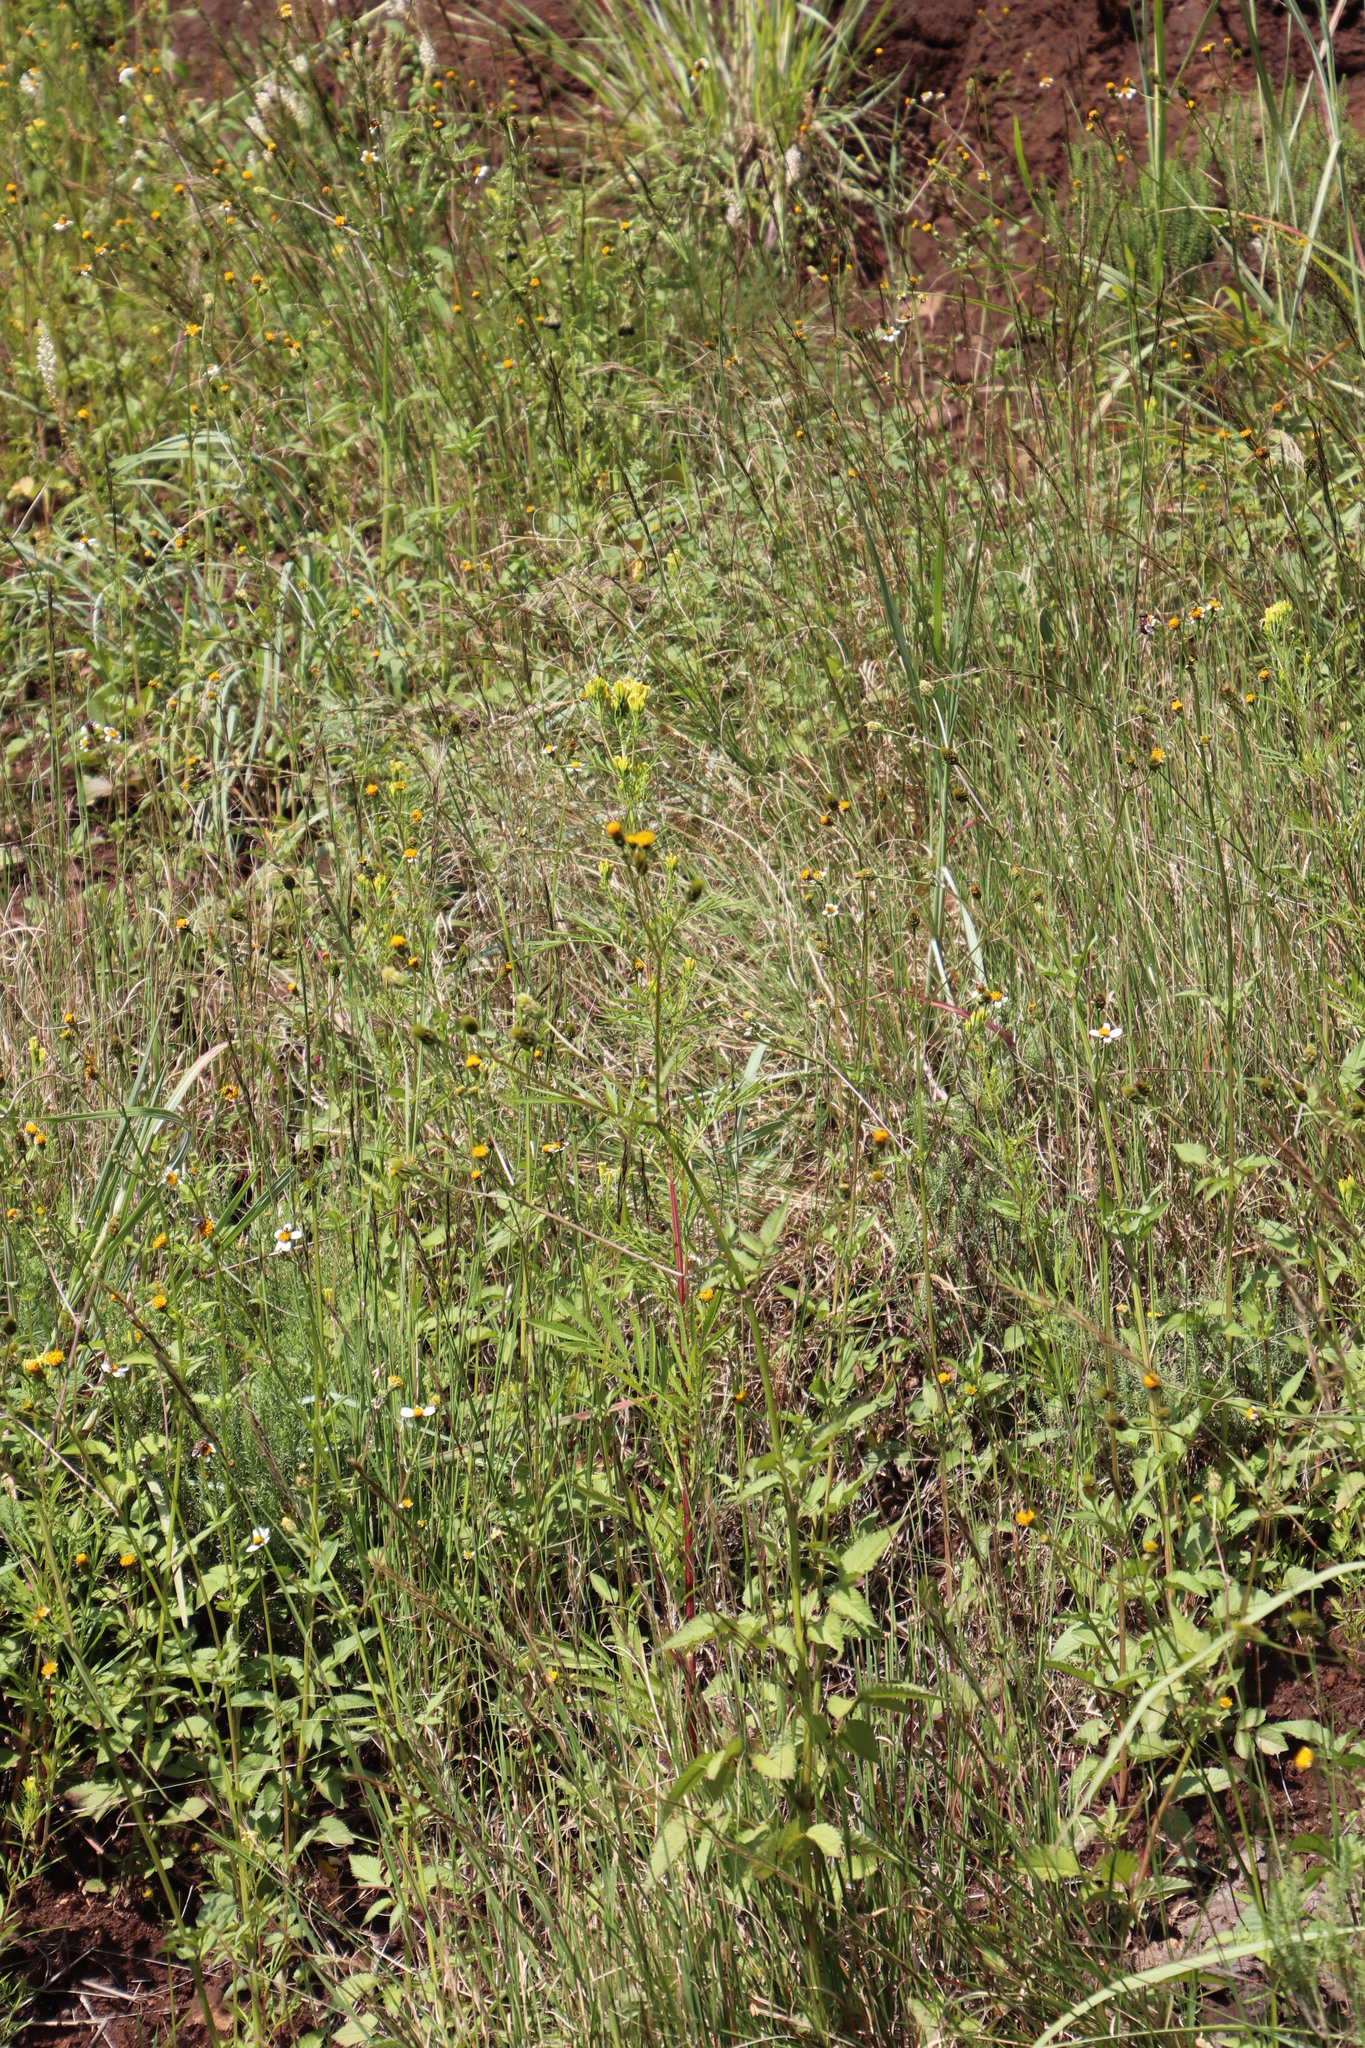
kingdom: Plantae
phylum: Tracheophyta
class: Magnoliopsida
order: Asterales
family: Asteraceae
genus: Tagetes
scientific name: Tagetes minuta
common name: Muster john henry
